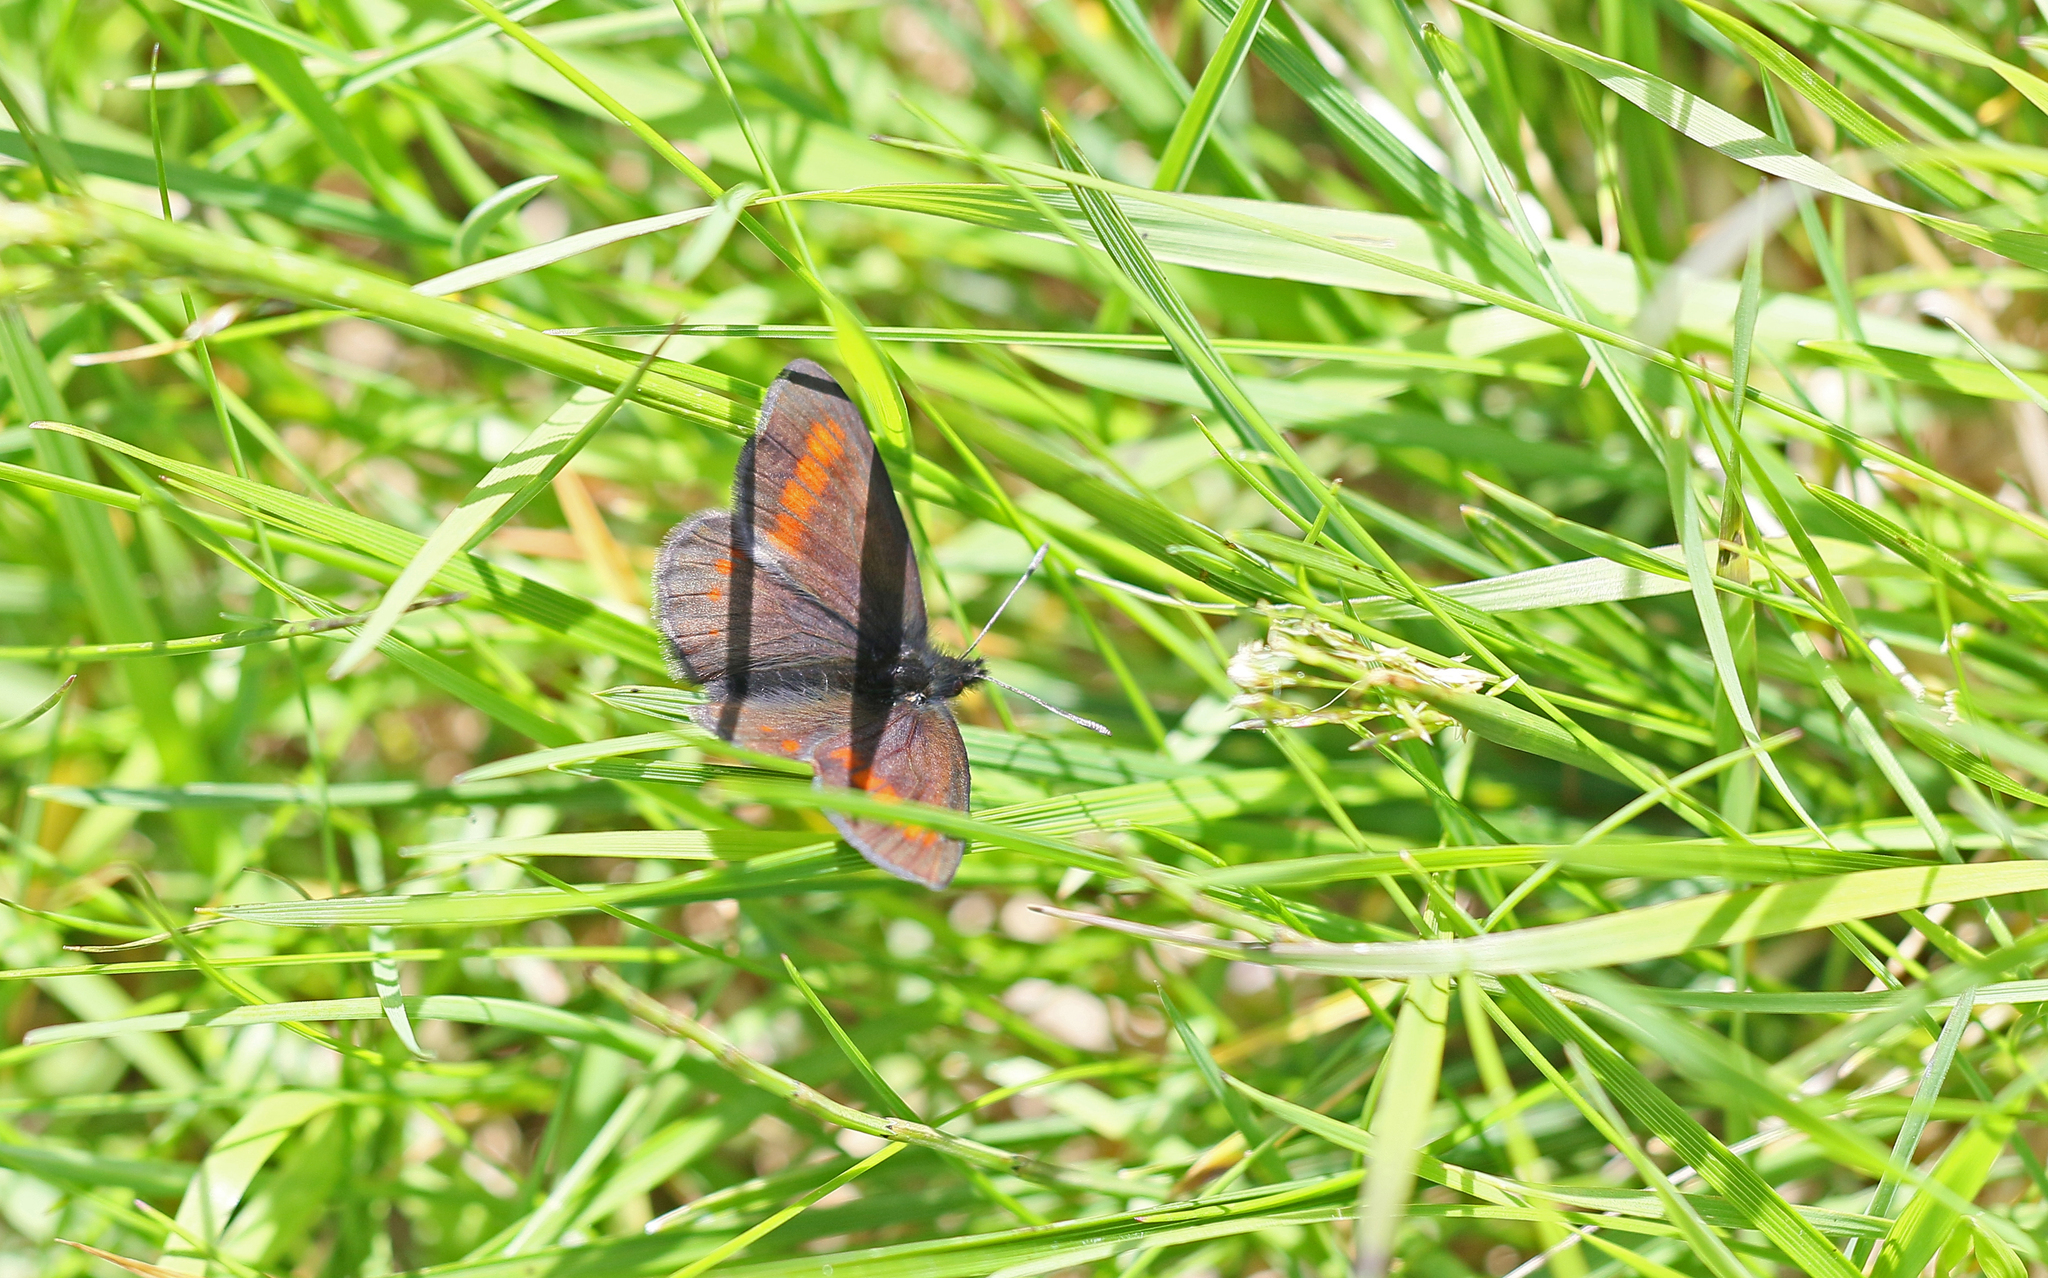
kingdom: Animalia
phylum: Arthropoda
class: Insecta
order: Lepidoptera
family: Nymphalidae
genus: Erebia
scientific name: Erebia pharte
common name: Blind ringlet
